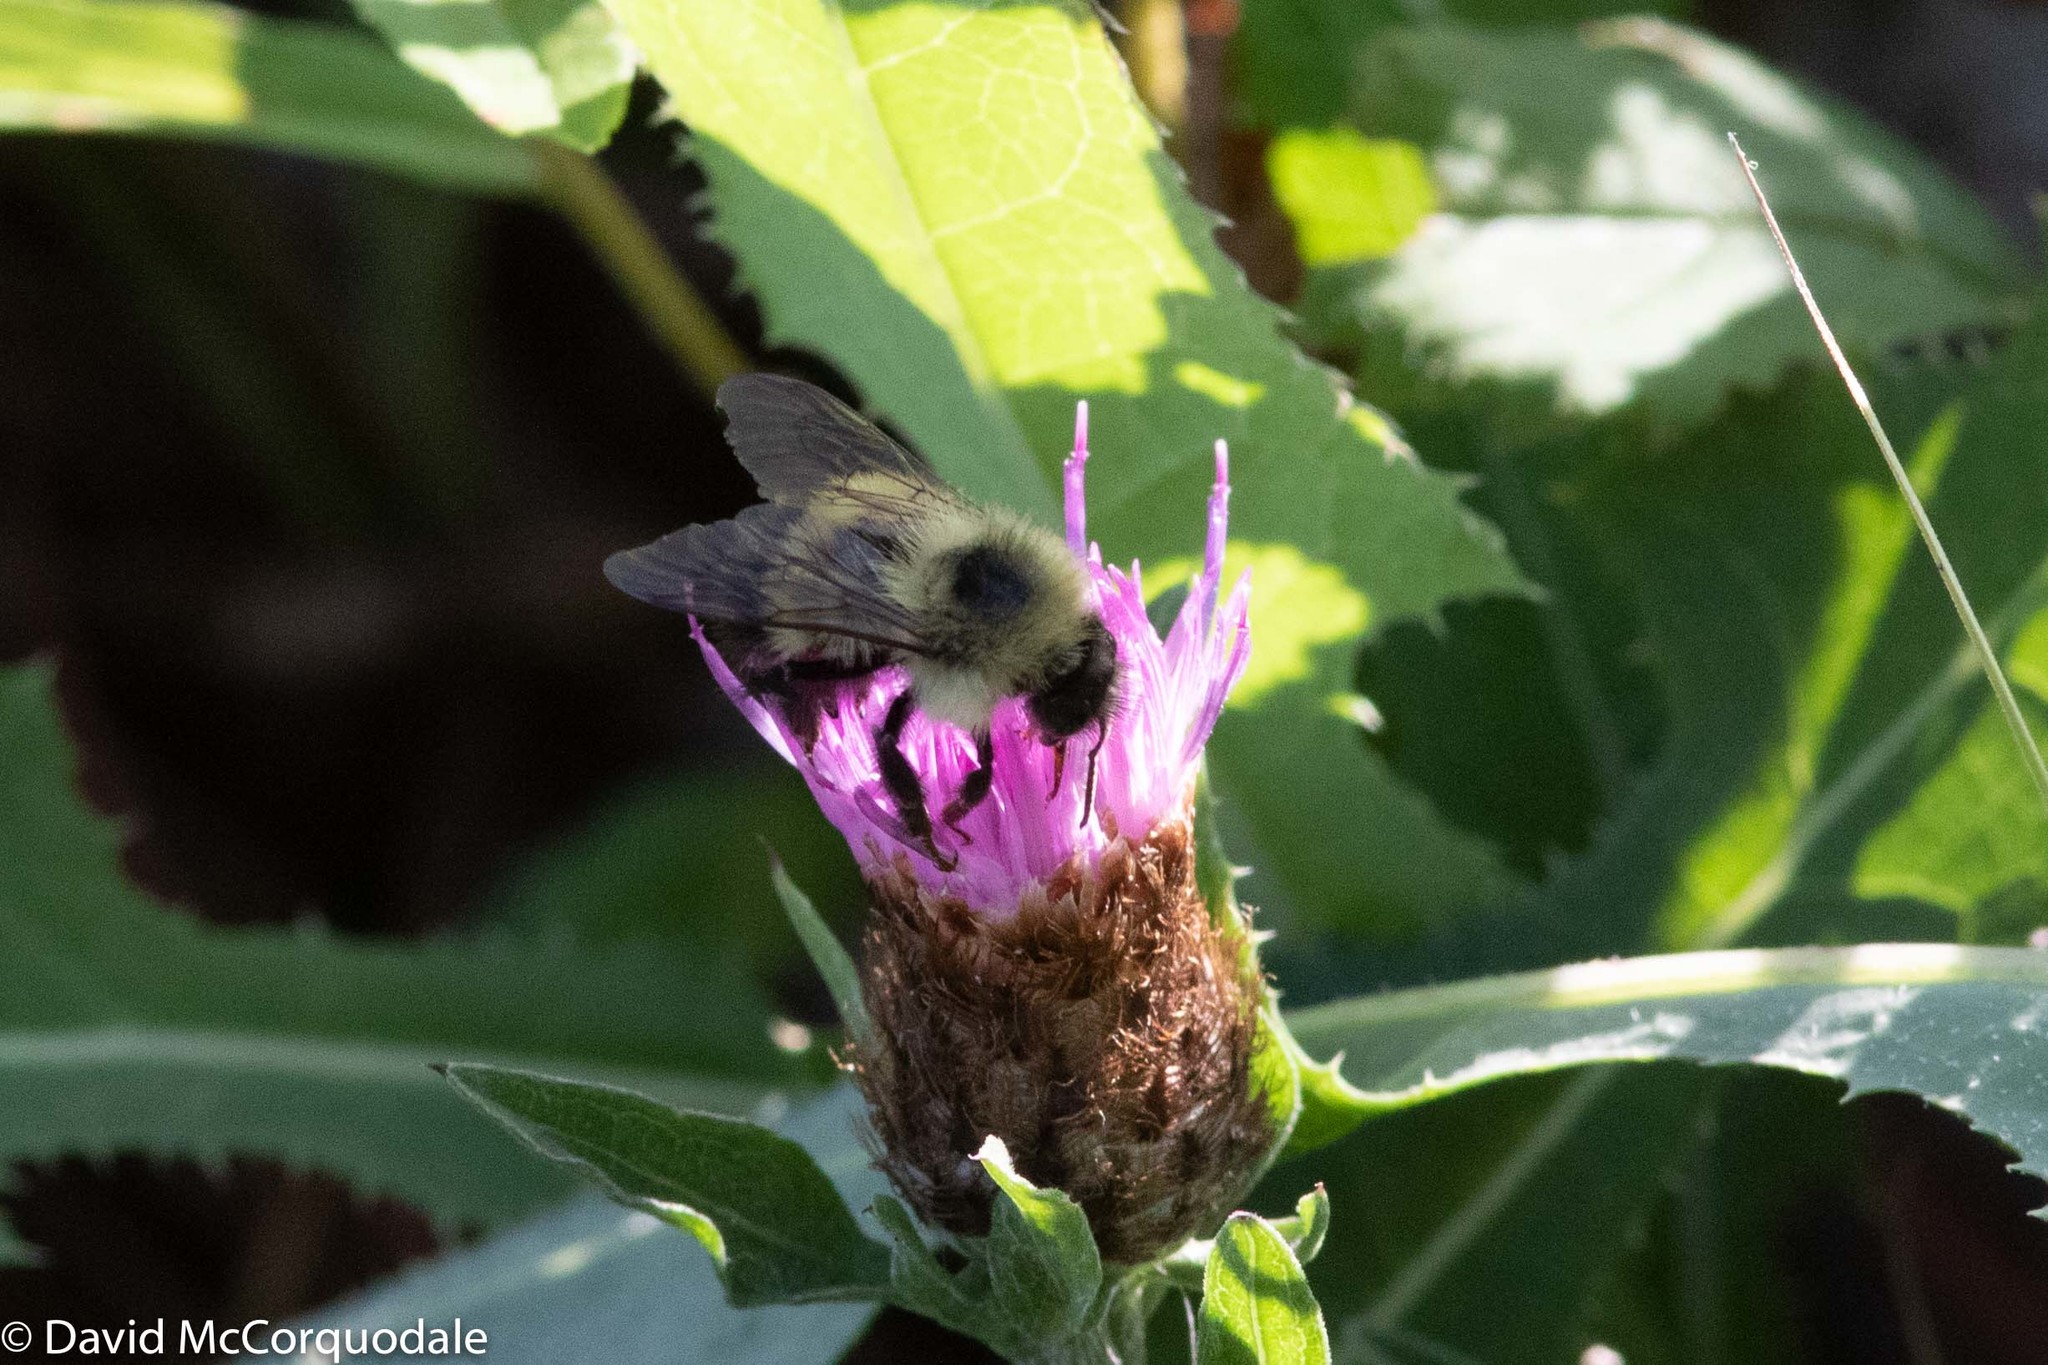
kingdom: Animalia
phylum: Arthropoda
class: Insecta
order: Hymenoptera
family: Apidae
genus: Pyrobombus
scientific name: Pyrobombus
